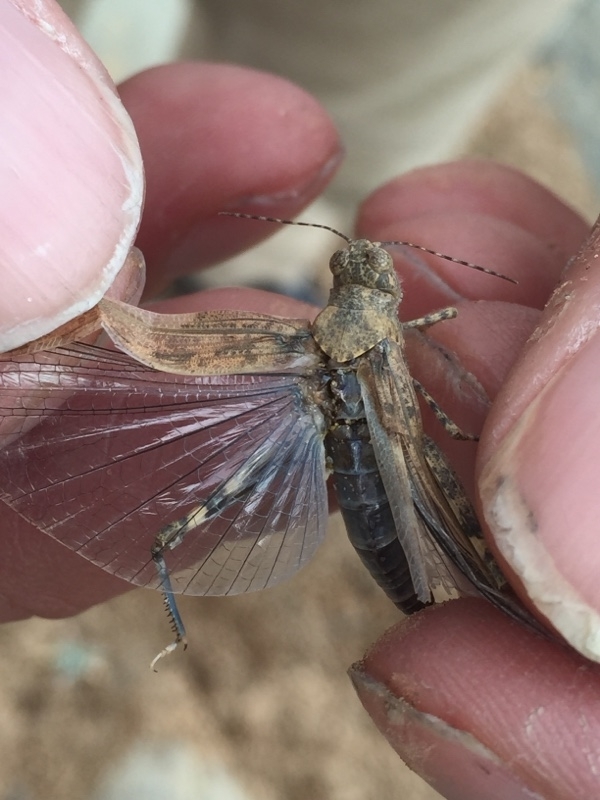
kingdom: Animalia
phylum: Arthropoda
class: Insecta
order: Orthoptera
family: Acrididae
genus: Sphingonotus
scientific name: Sphingonotus rubescens
